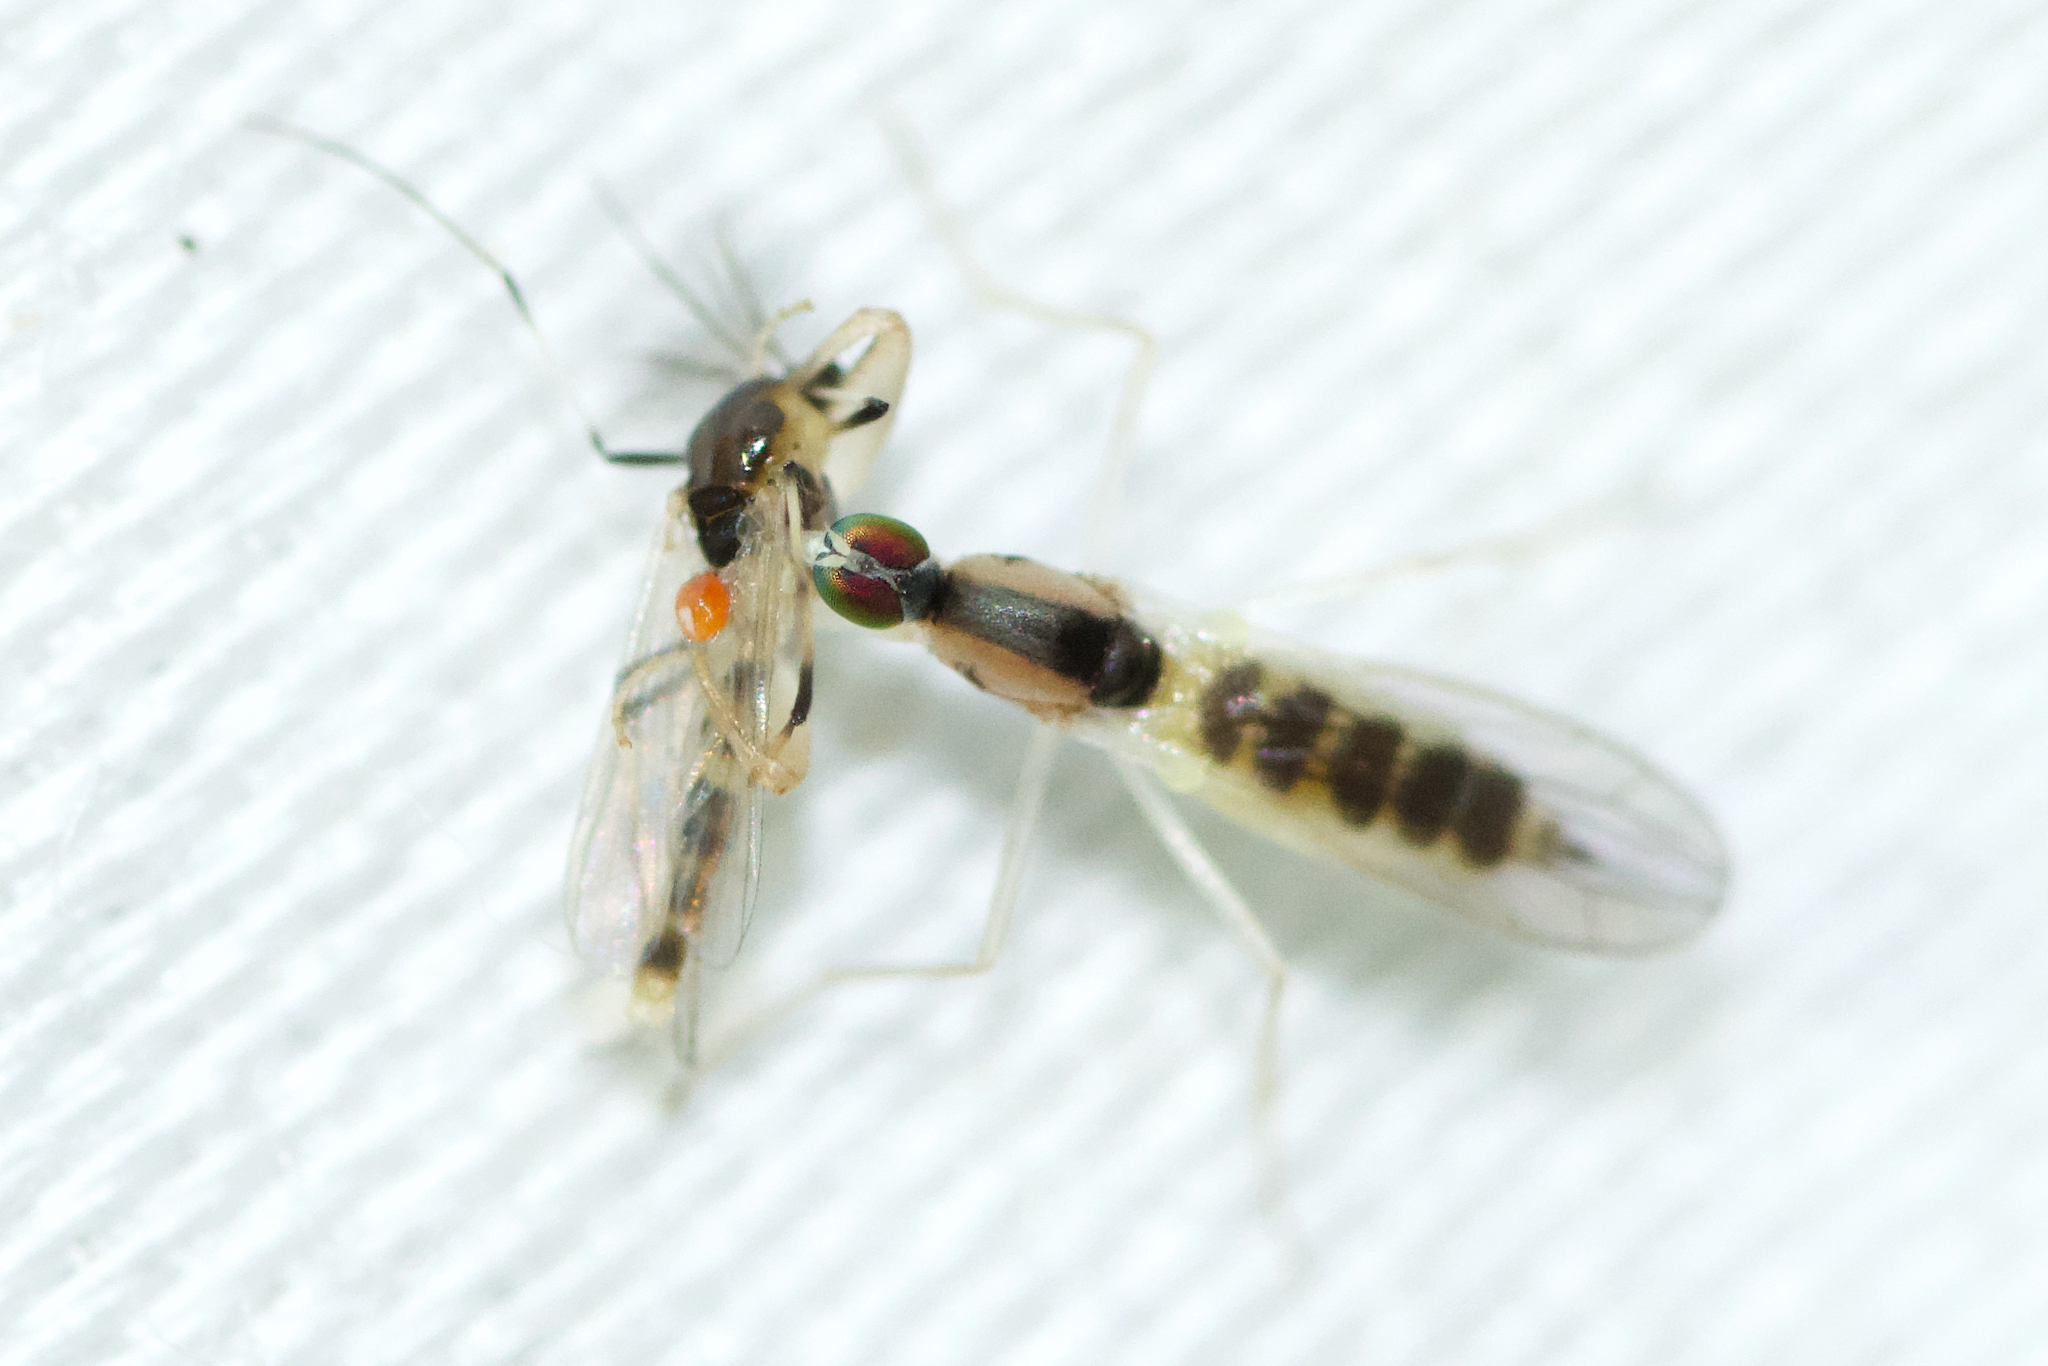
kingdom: Animalia
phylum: Arthropoda
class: Insecta
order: Diptera
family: Empididae
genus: Hemerodromia
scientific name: Hemerodromia superstitiosa
